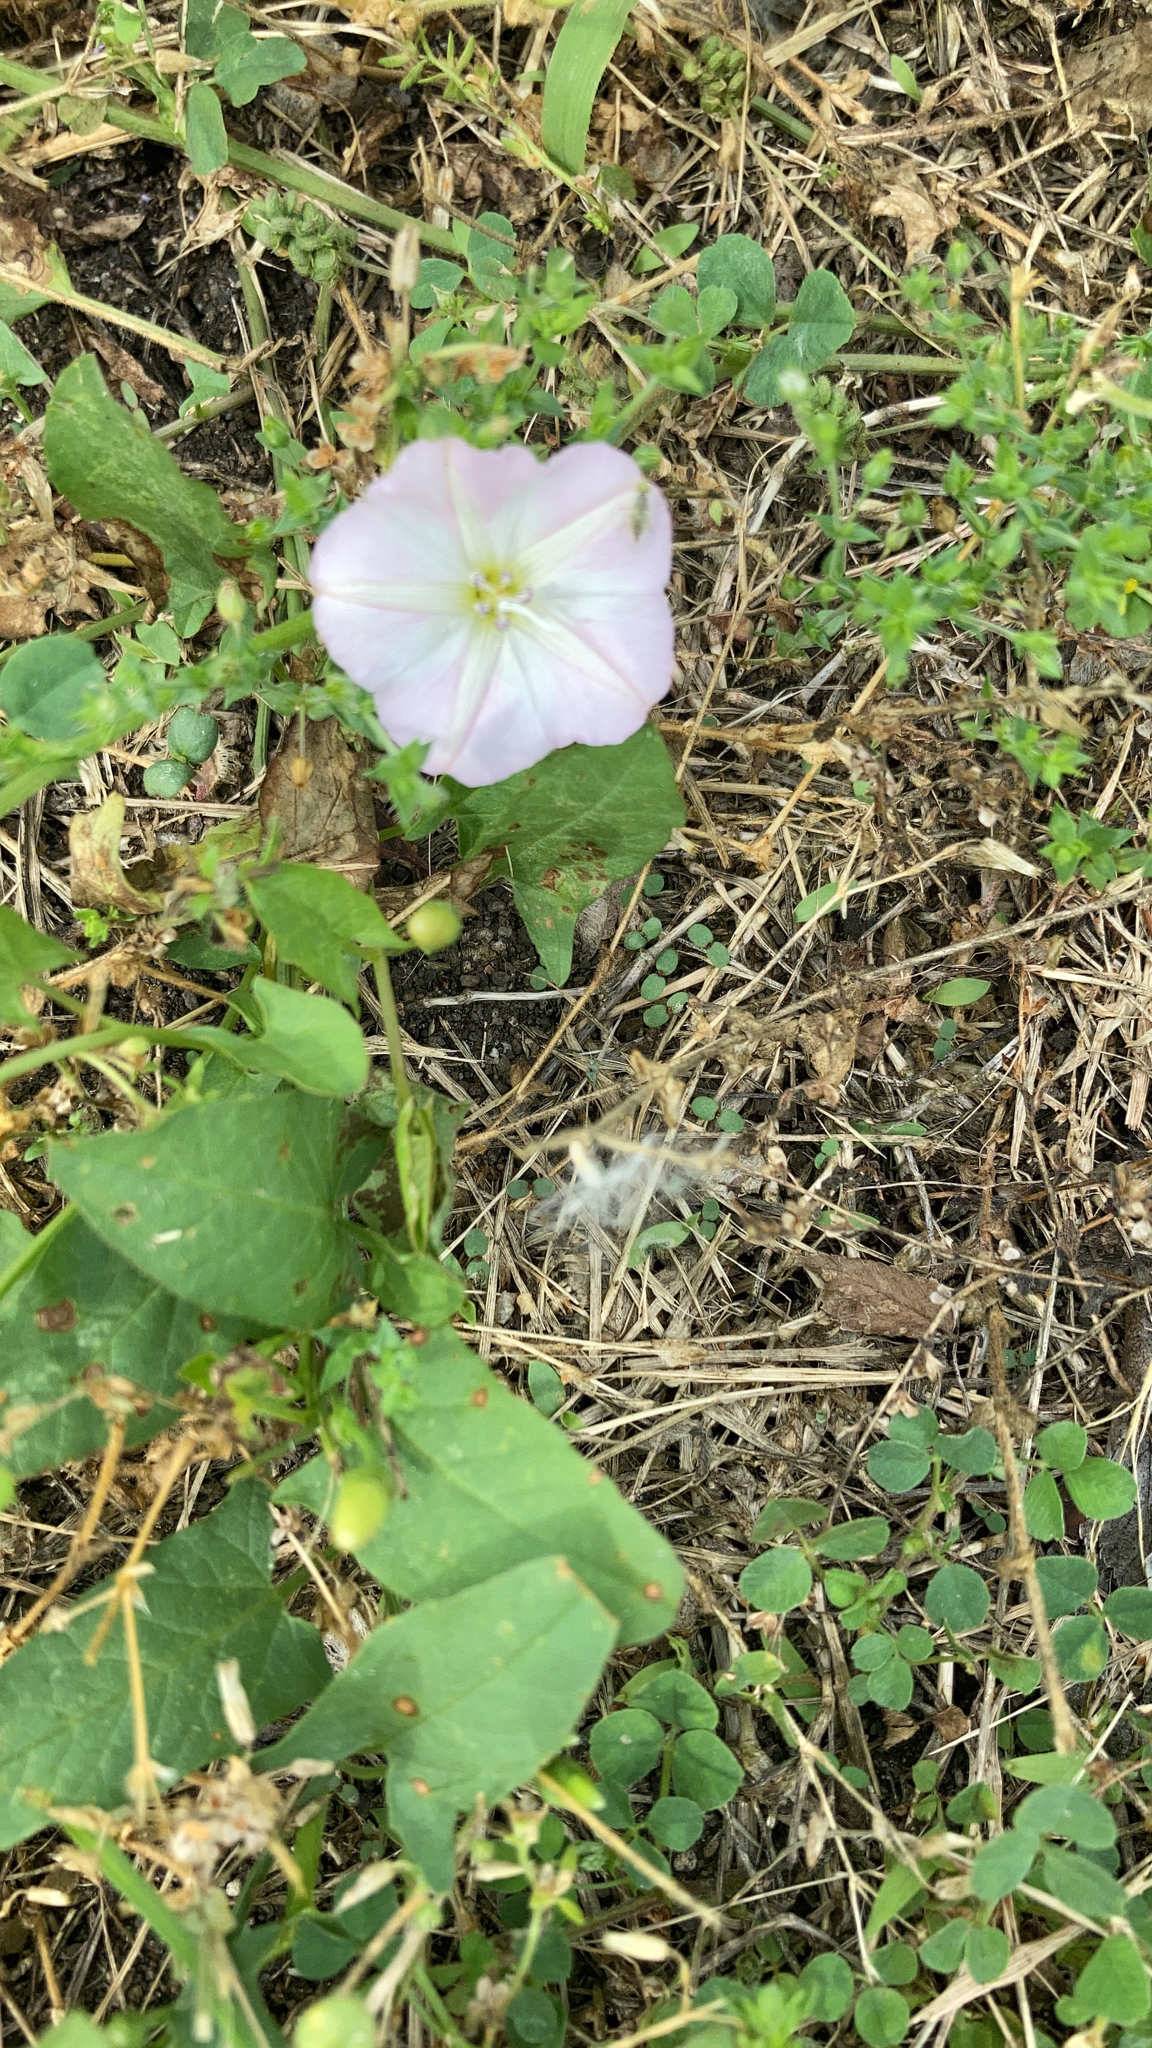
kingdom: Plantae
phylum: Tracheophyta
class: Magnoliopsida
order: Solanales
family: Convolvulaceae
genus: Convolvulus
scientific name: Convolvulus arvensis
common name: Field bindweed
